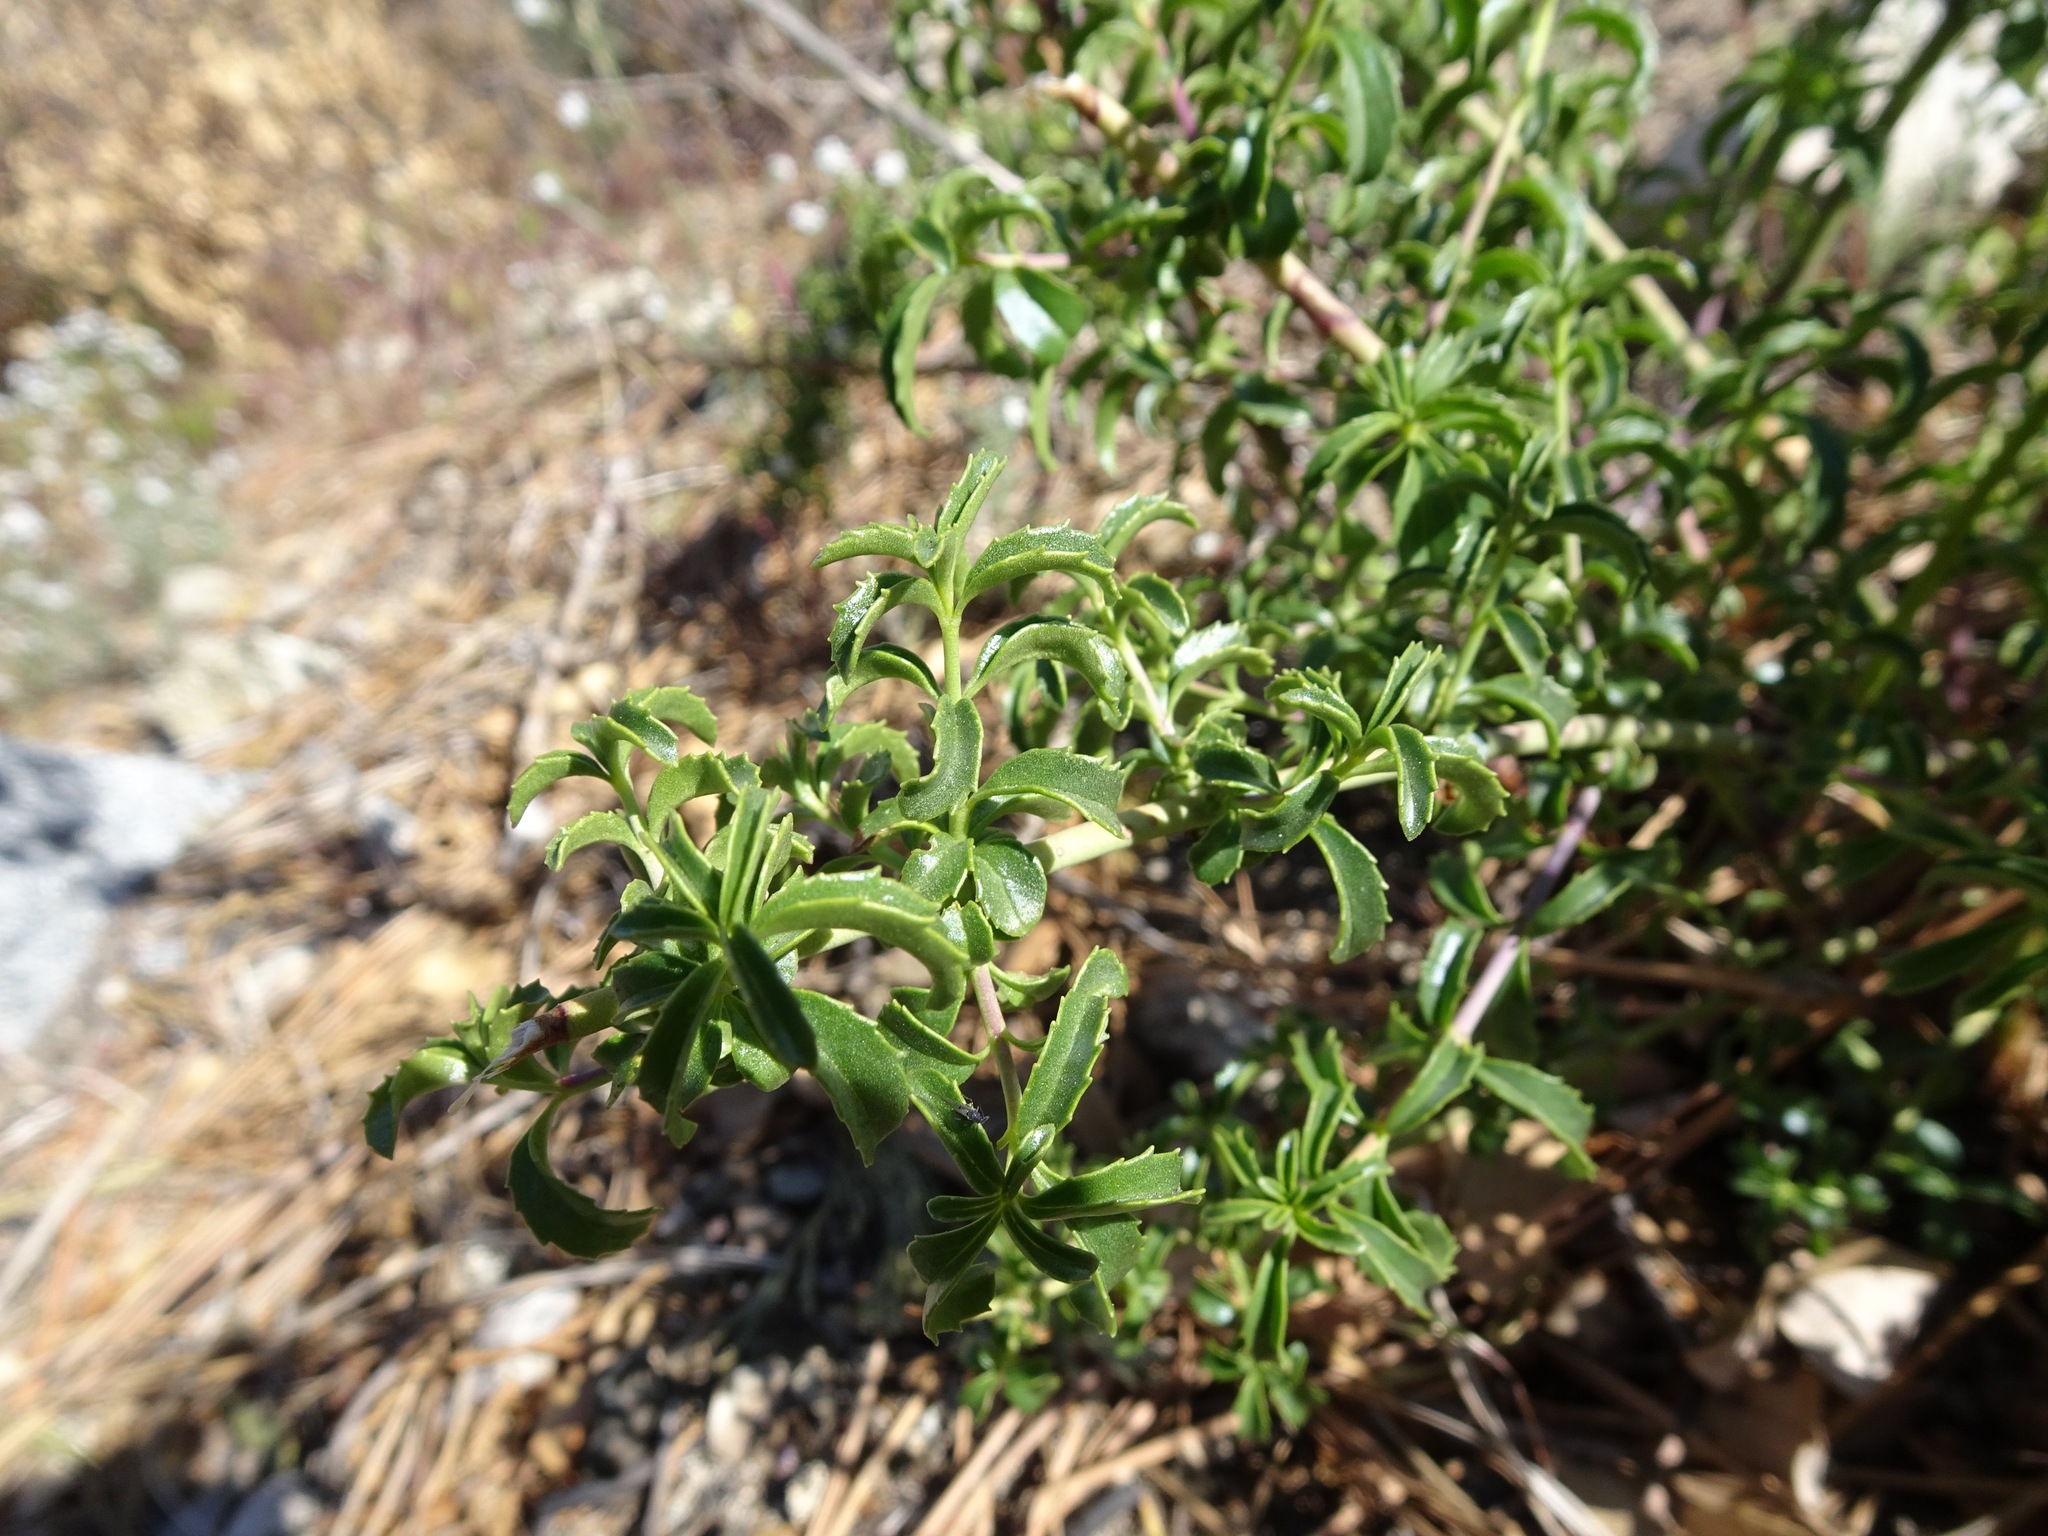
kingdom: Plantae
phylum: Tracheophyta
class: Magnoliopsida
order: Lamiales
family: Plantaginaceae
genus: Keckiella
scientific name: Keckiella ternata
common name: Scarlet keckiella
